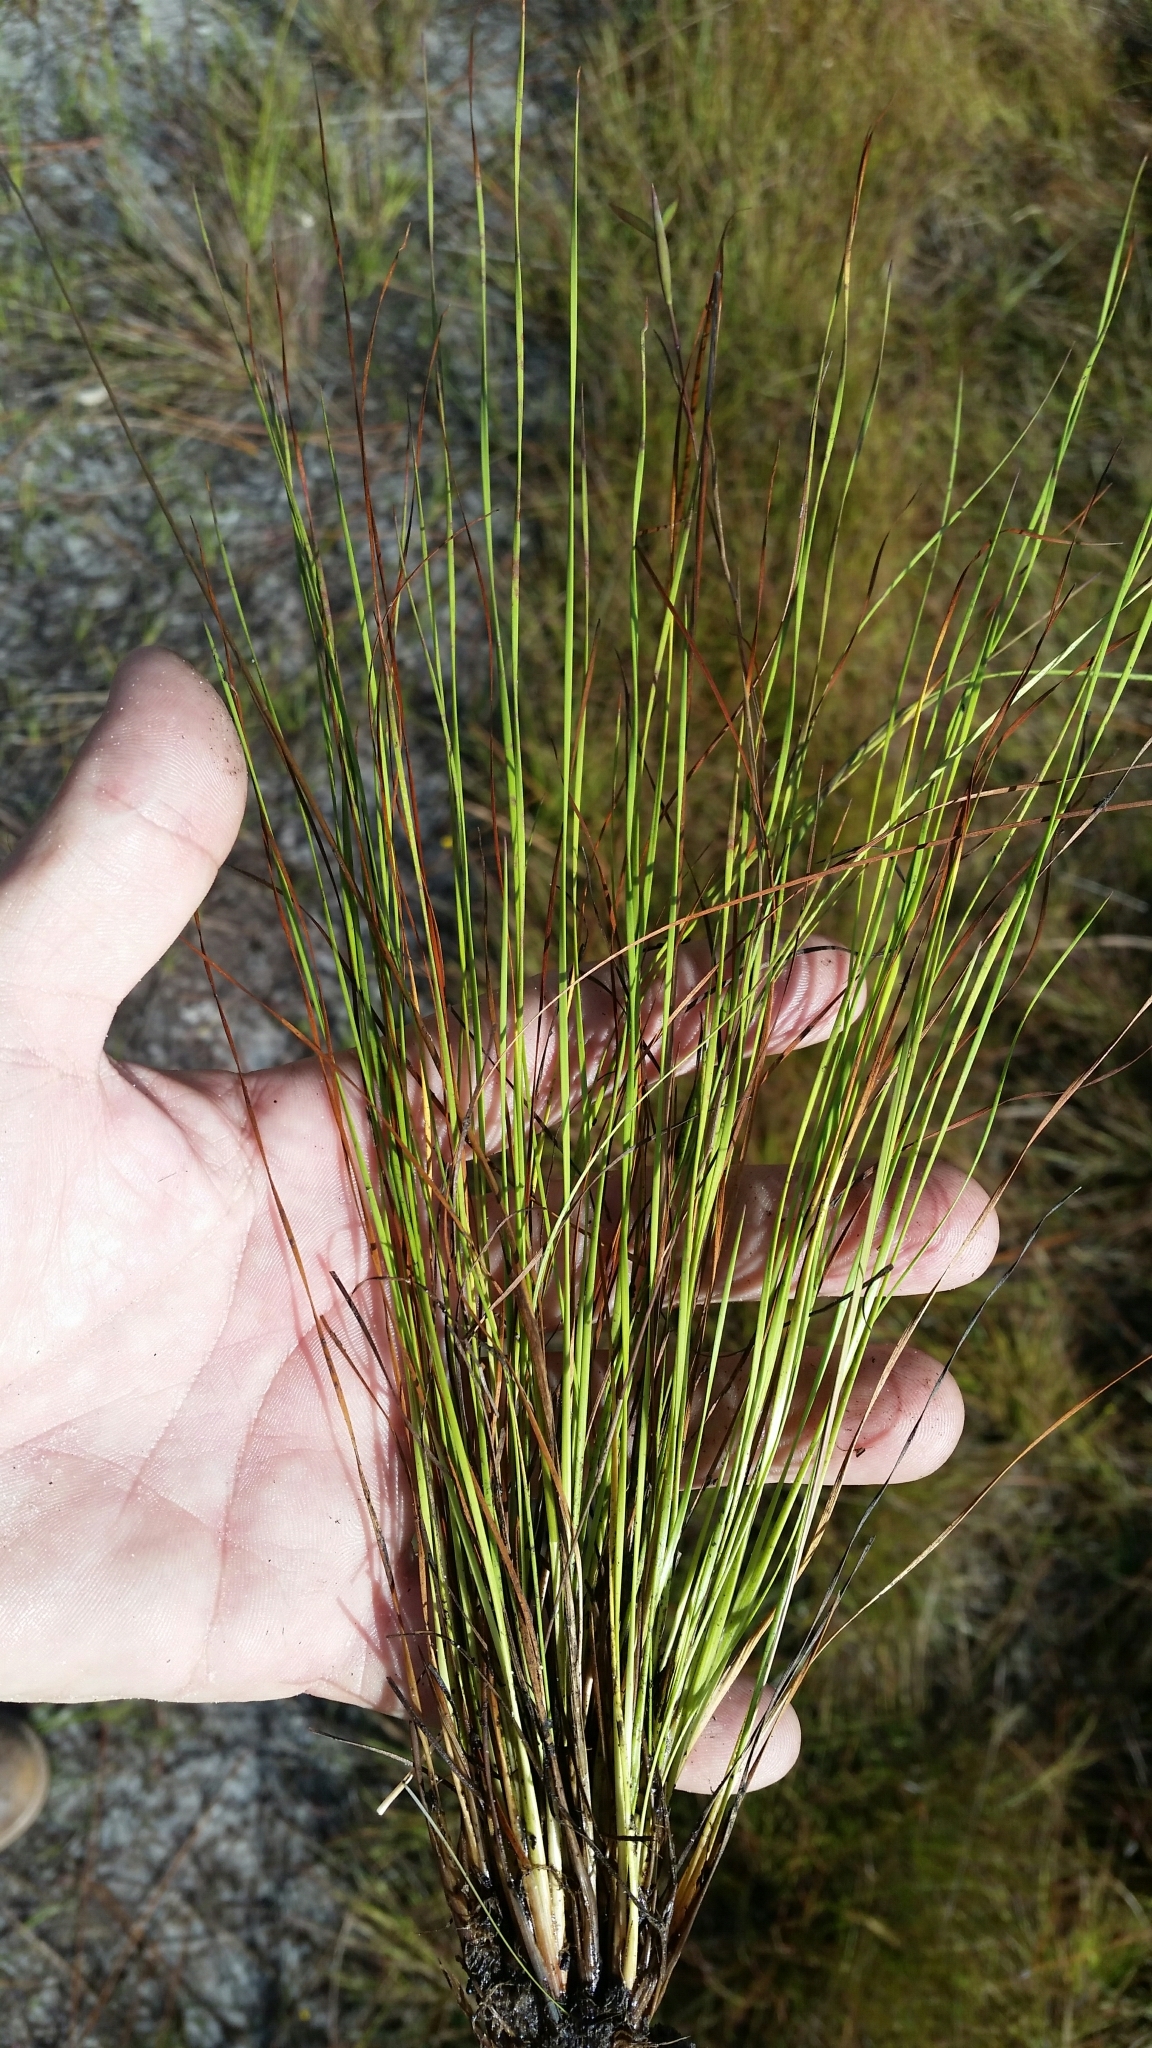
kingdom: Plantae
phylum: Tracheophyta
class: Liliopsida
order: Poales
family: Xyridaceae
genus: Xyris
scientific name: Xyris stenotera
